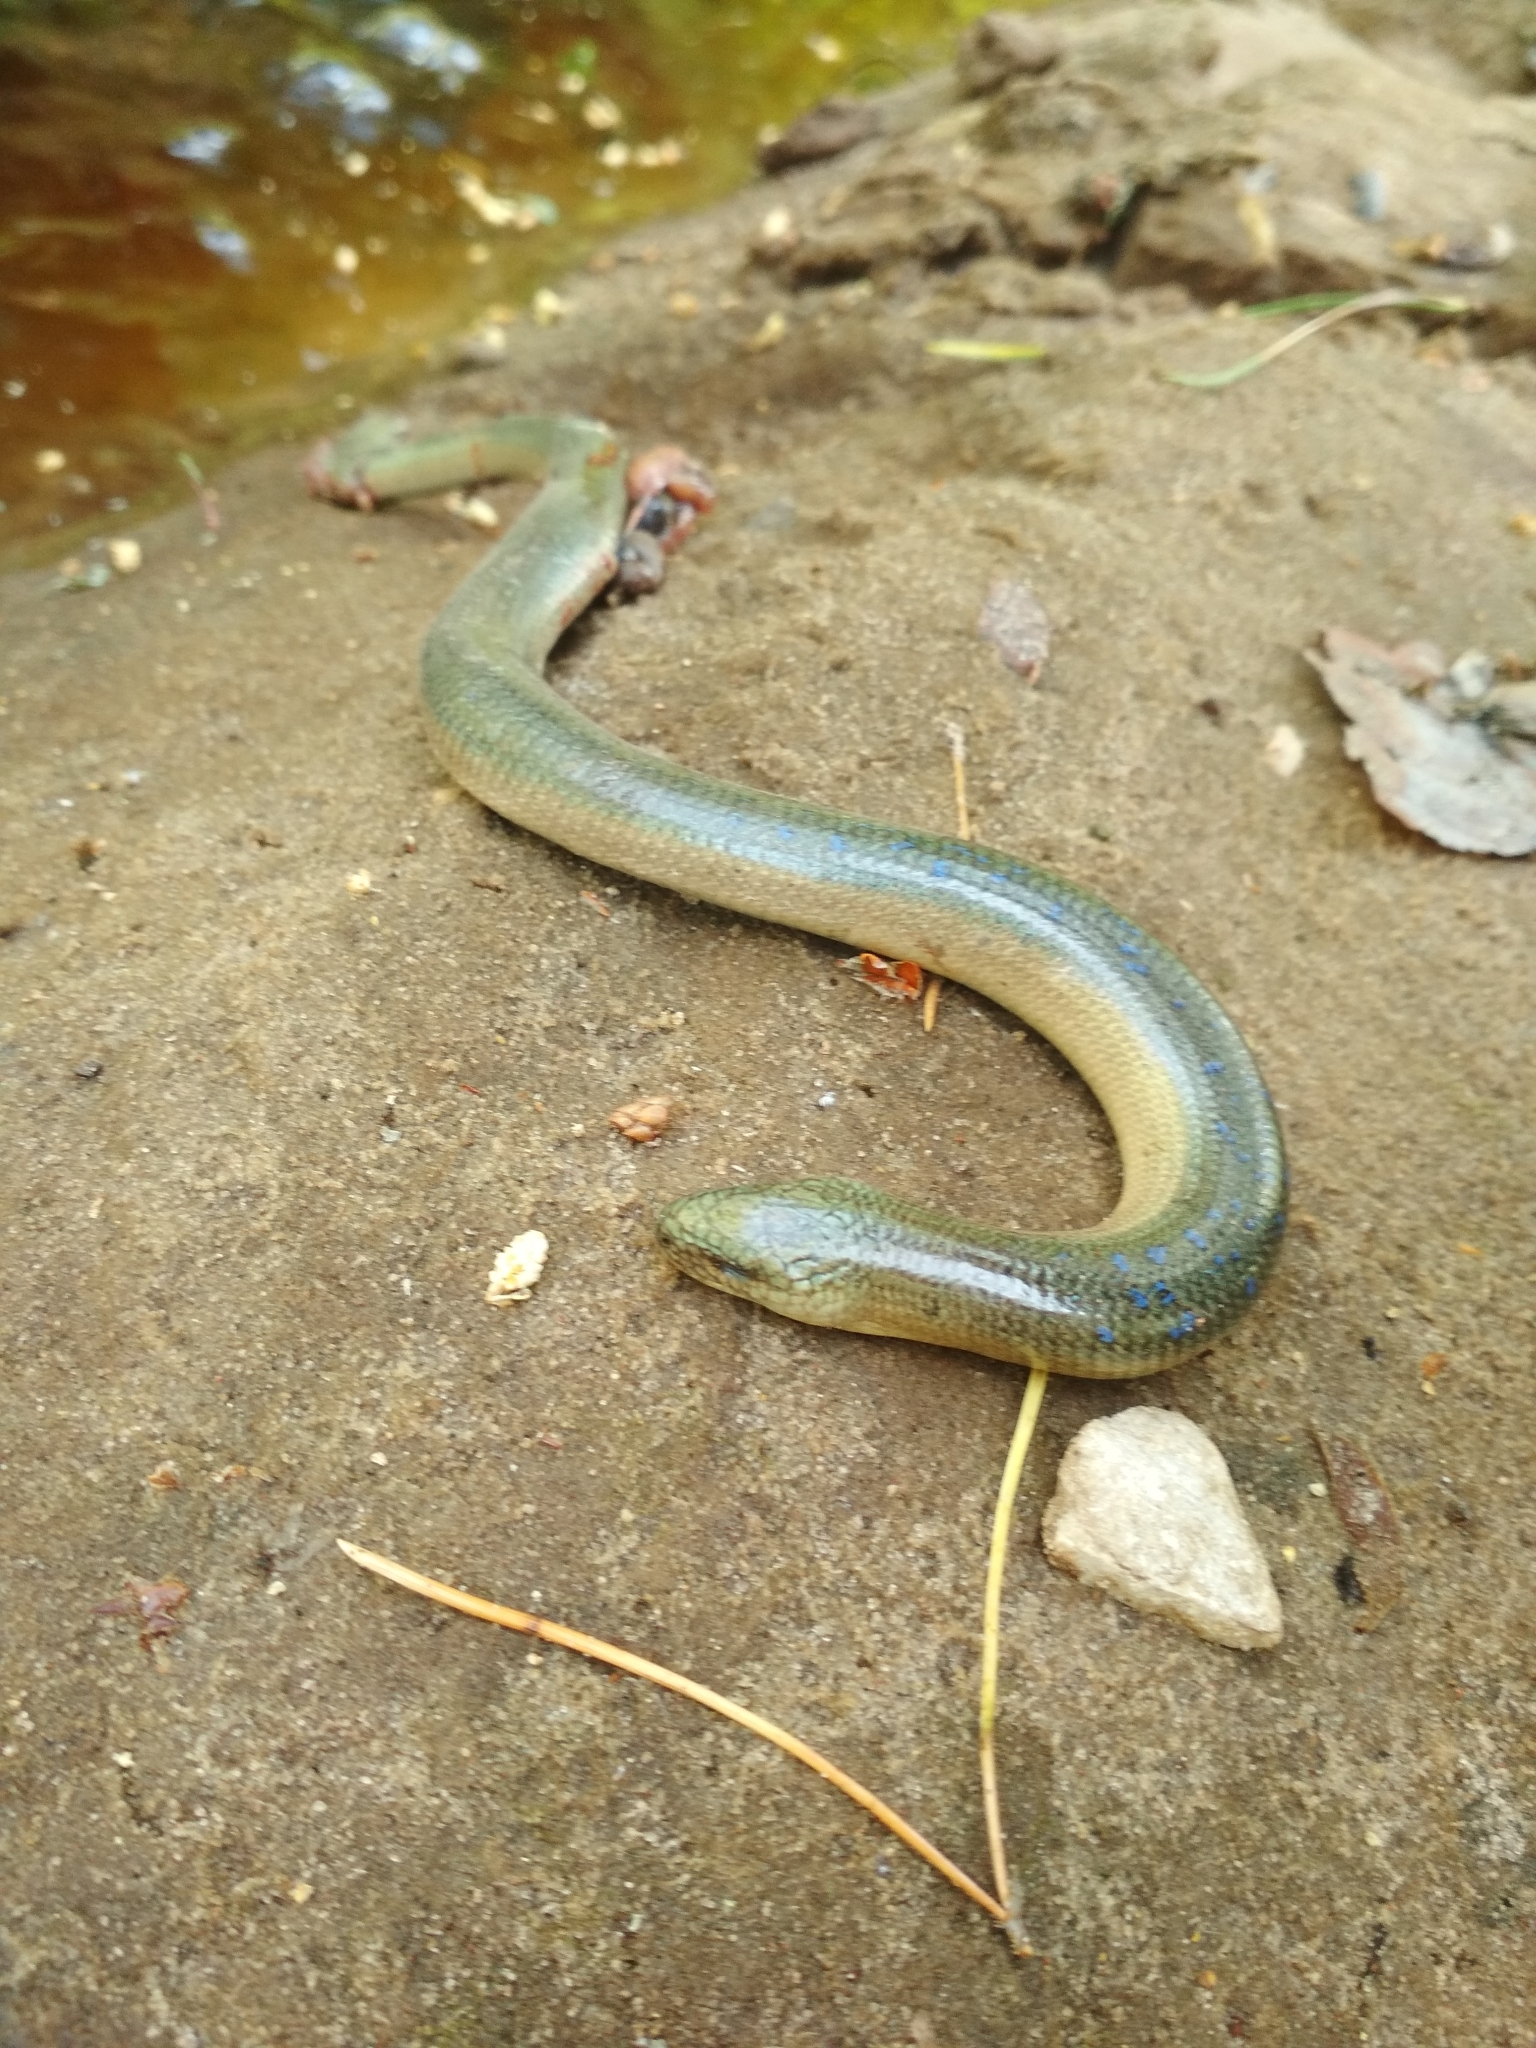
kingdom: Animalia
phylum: Chordata
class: Squamata
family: Anguidae
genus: Anguis
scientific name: Anguis colchica
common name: Slow worm
